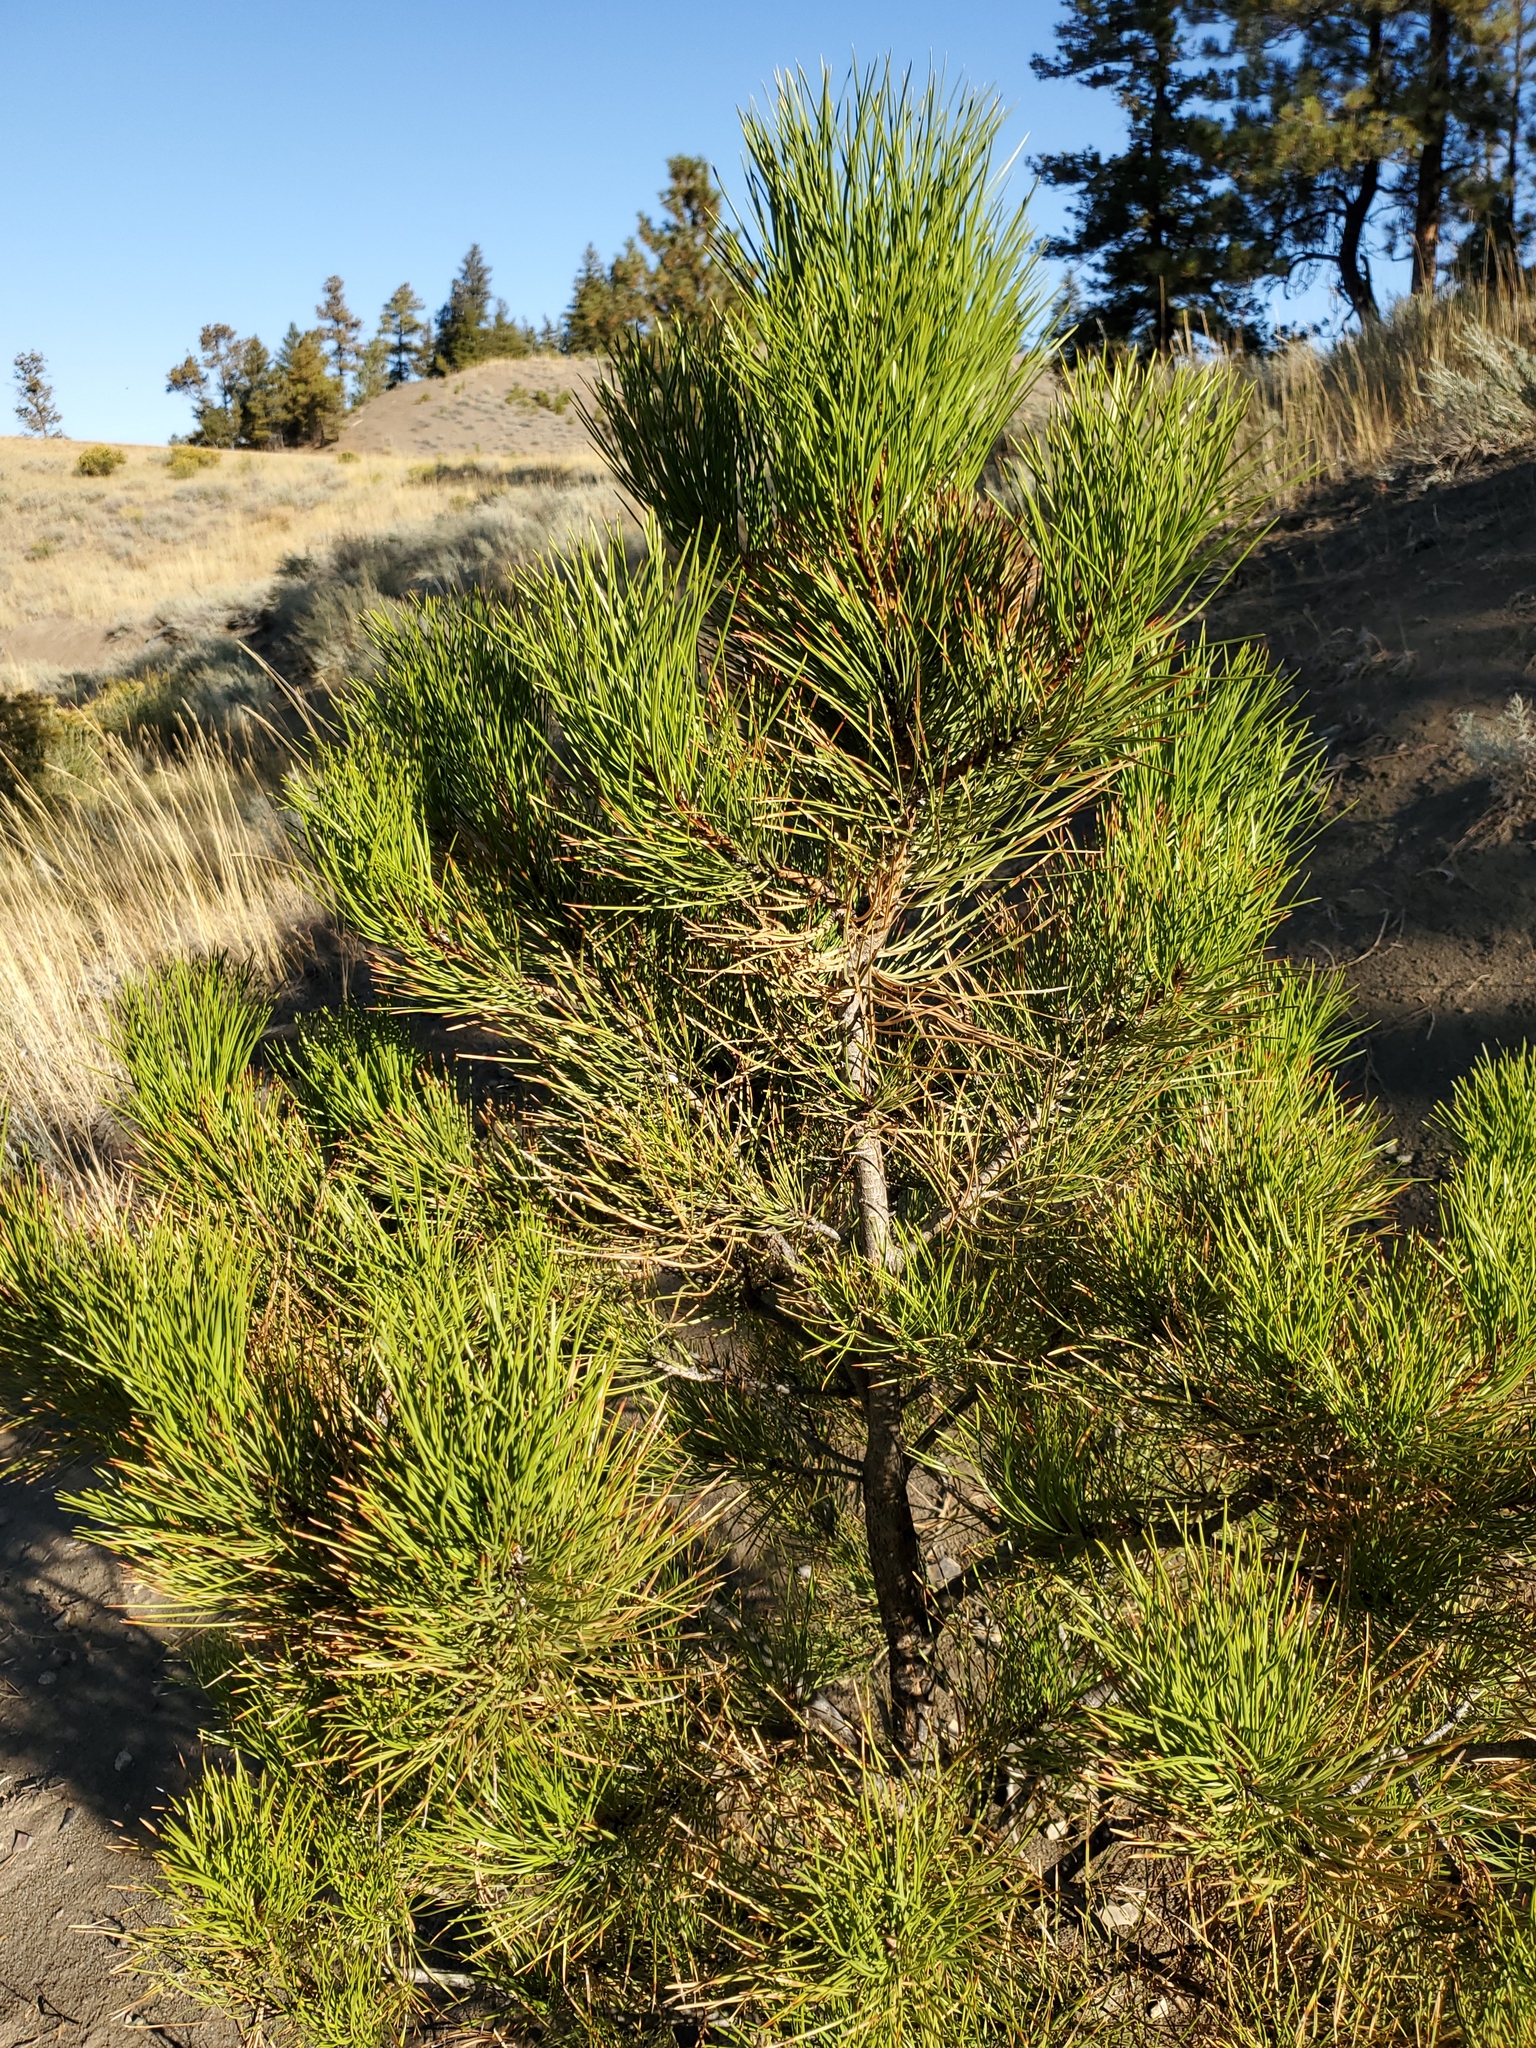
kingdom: Plantae
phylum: Tracheophyta
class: Pinopsida
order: Pinales
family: Pinaceae
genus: Pinus
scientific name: Pinus ponderosa
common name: Western yellow-pine
